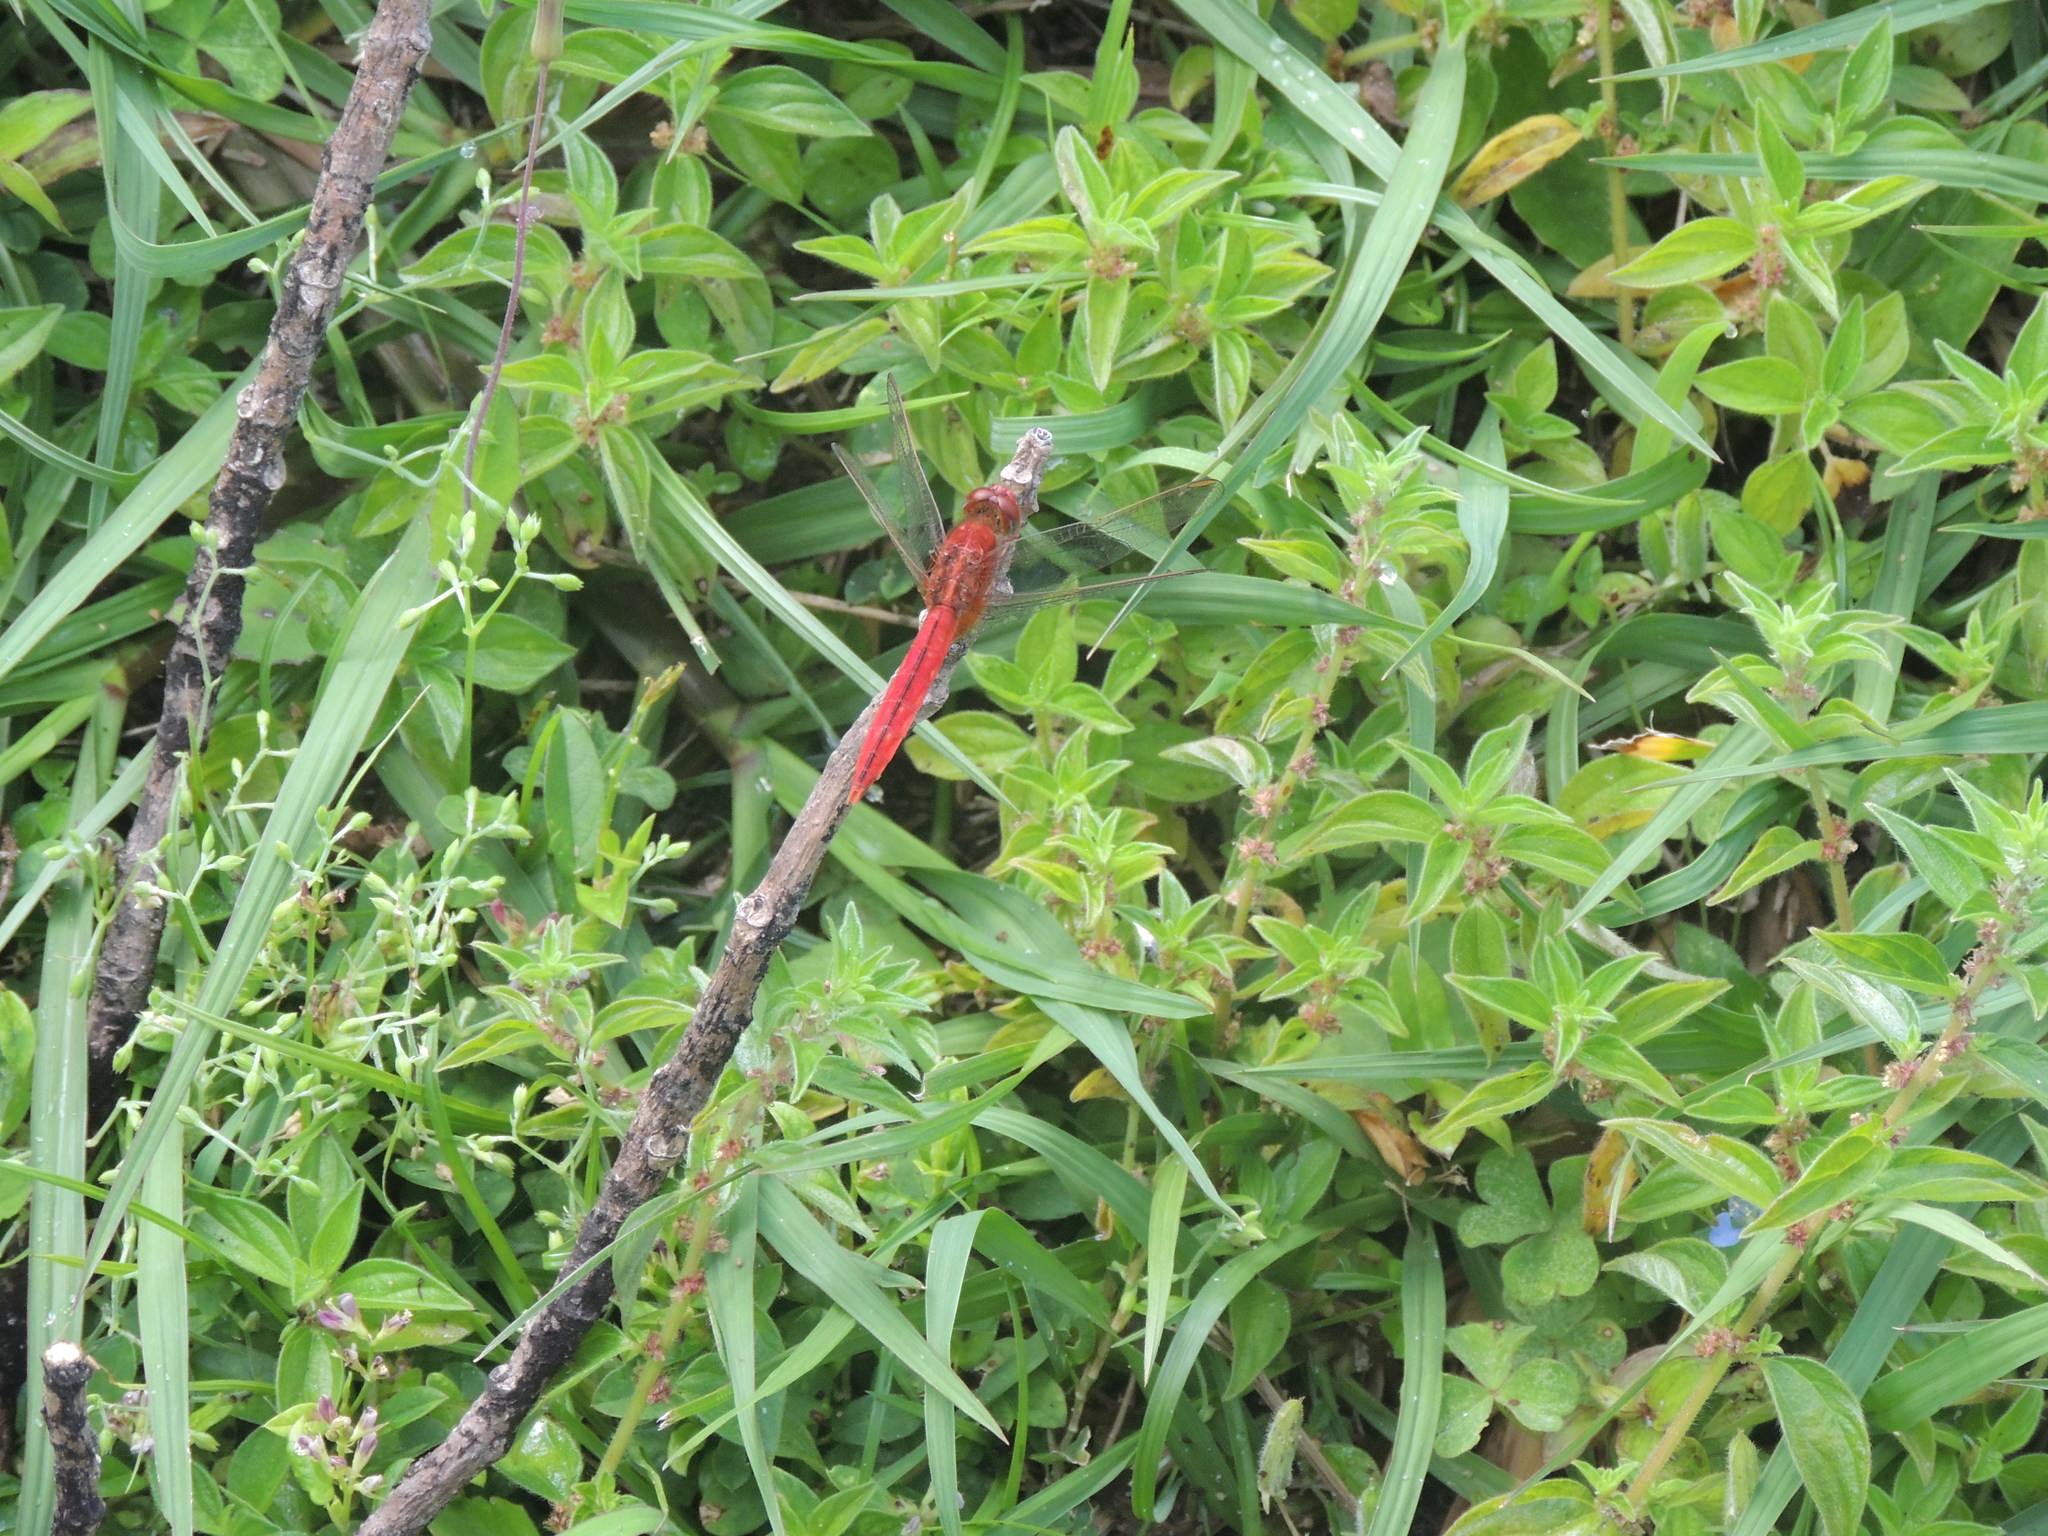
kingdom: Animalia
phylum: Arthropoda
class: Insecta
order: Odonata
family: Libellulidae
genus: Crocothemis
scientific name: Crocothemis servilia
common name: Scarlet skimmer
